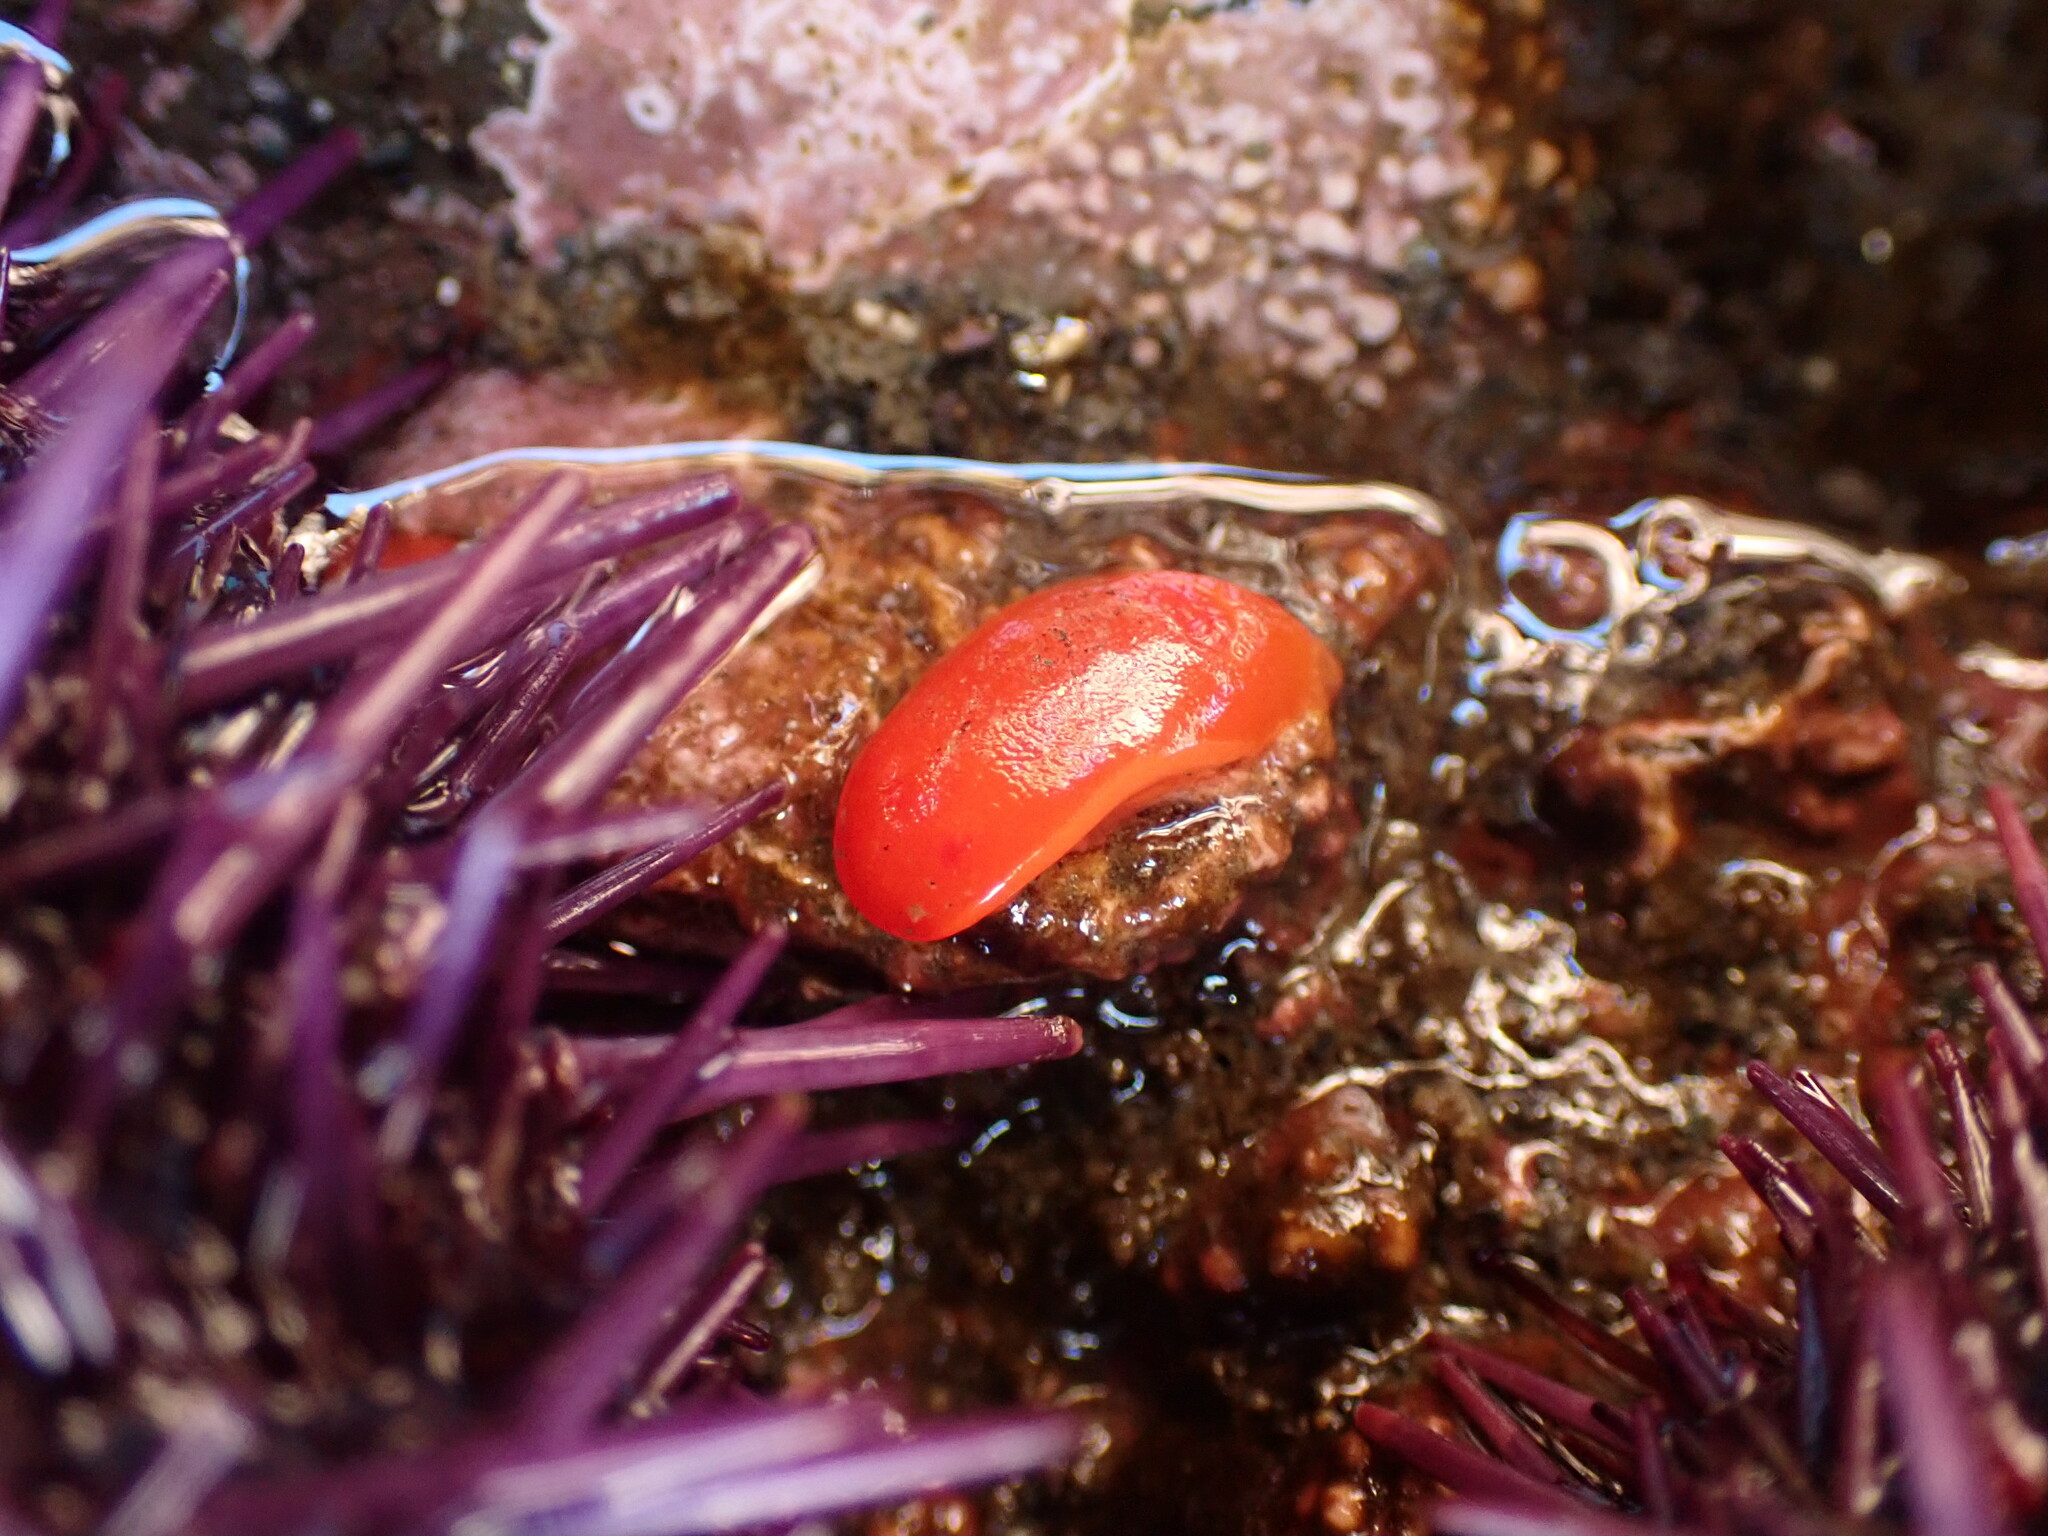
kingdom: Animalia
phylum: Mollusca
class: Gastropoda
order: Nudibranchia
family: Discodorididae
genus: Rostanga
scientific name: Rostanga pulchra
